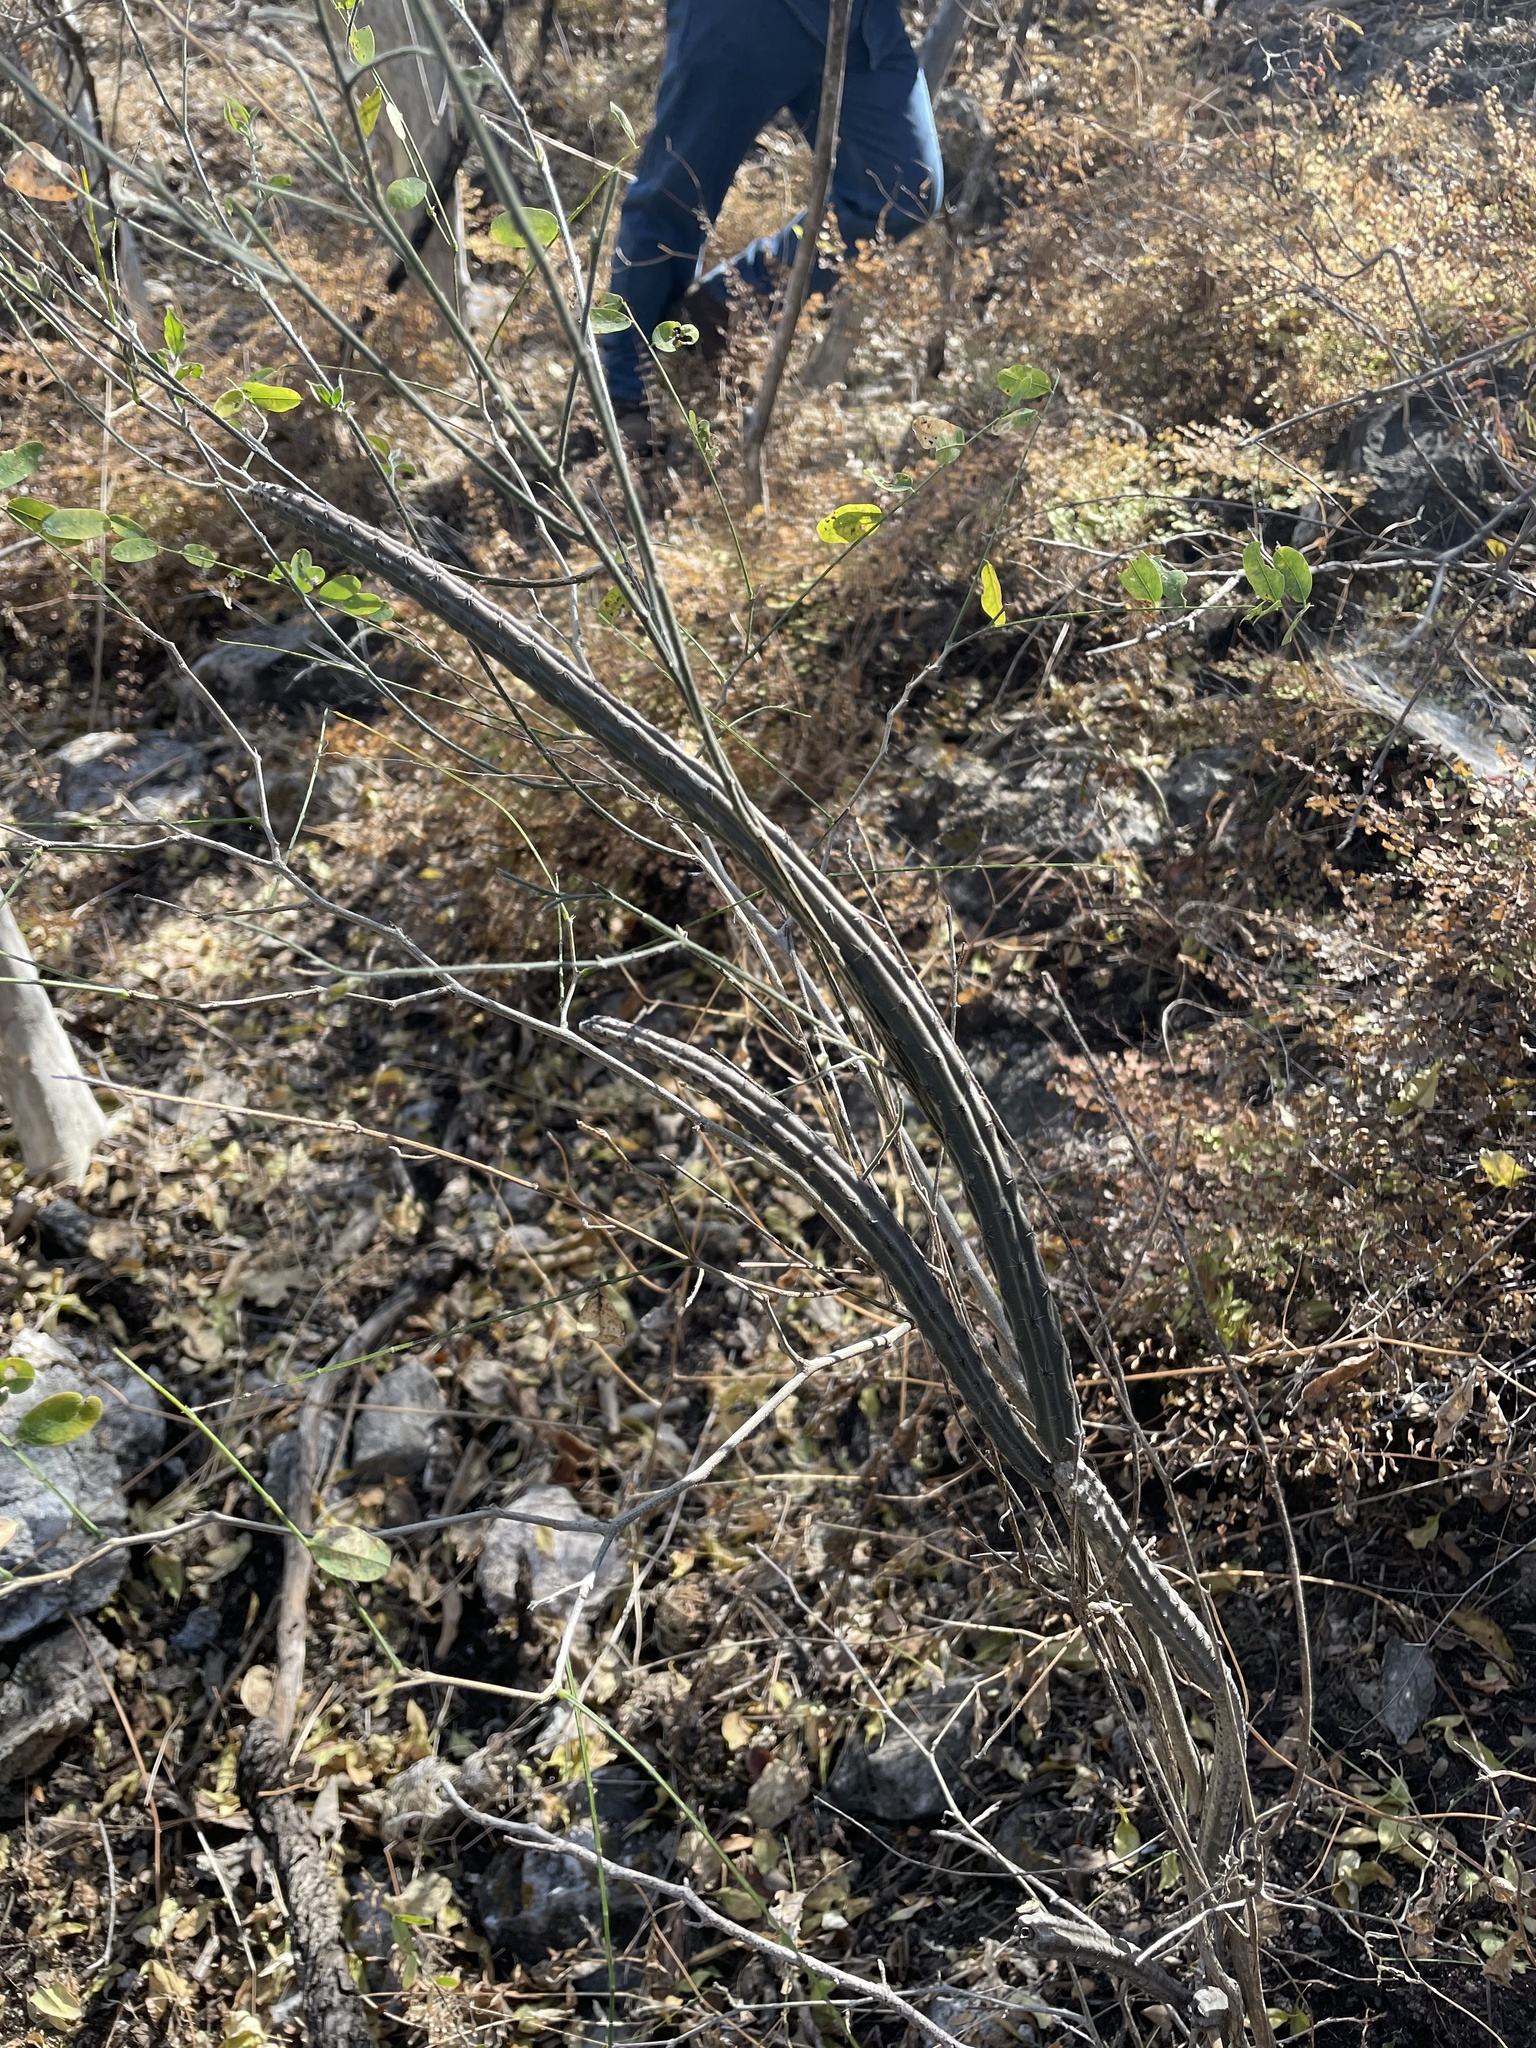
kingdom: Plantae
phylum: Tracheophyta
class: Magnoliopsida
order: Caryophyllales
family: Cactaceae
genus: Peniocereus
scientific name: Peniocereus viperinus
